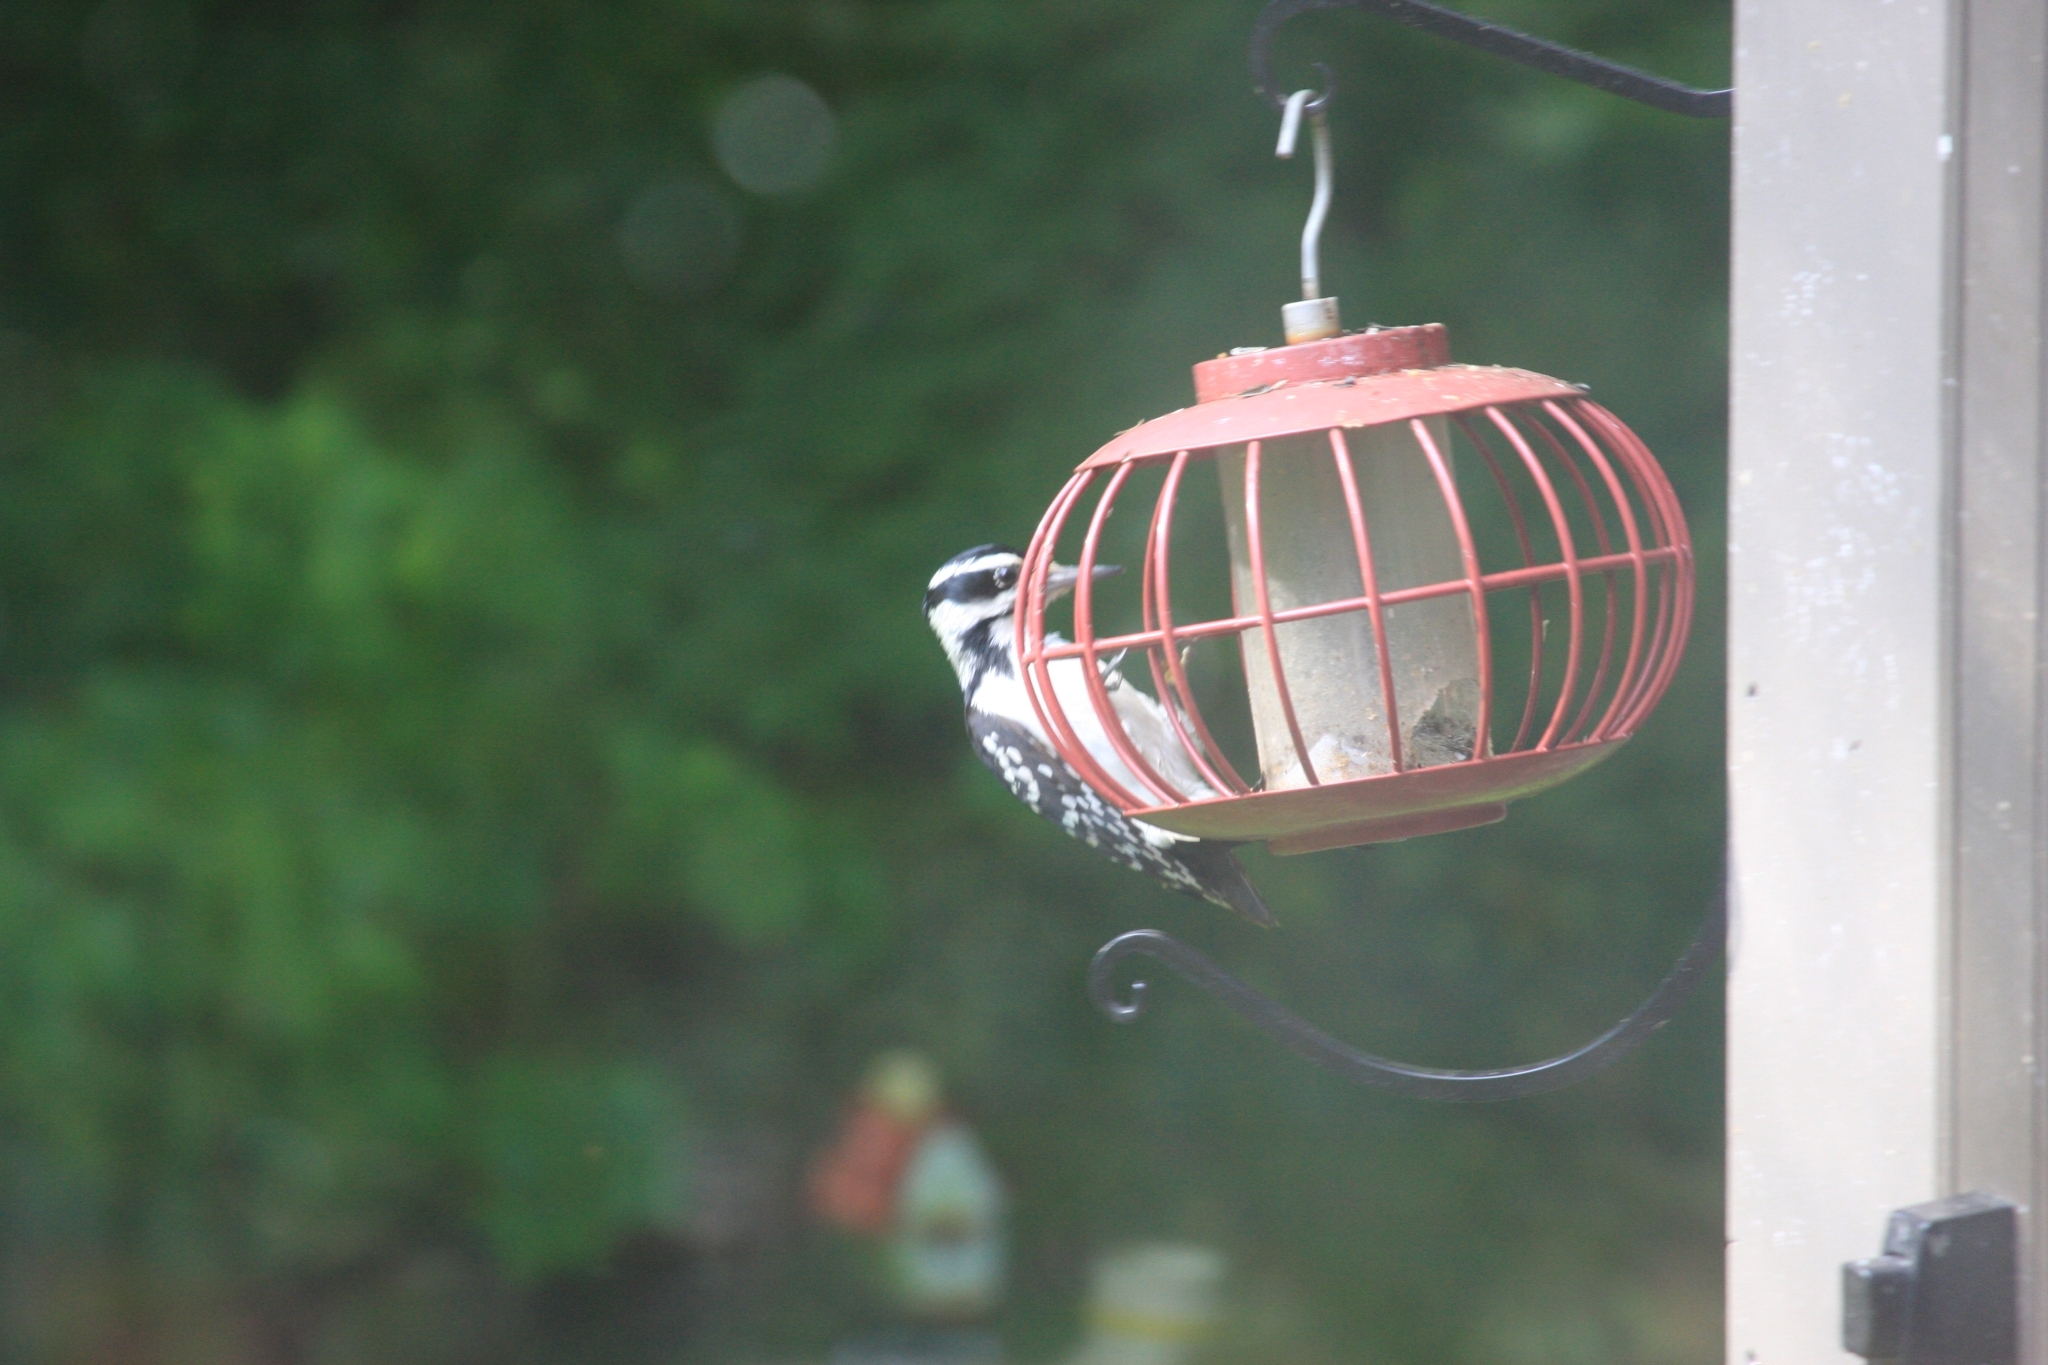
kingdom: Animalia
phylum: Chordata
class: Aves
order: Piciformes
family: Picidae
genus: Leuconotopicus
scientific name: Leuconotopicus villosus
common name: Hairy woodpecker
